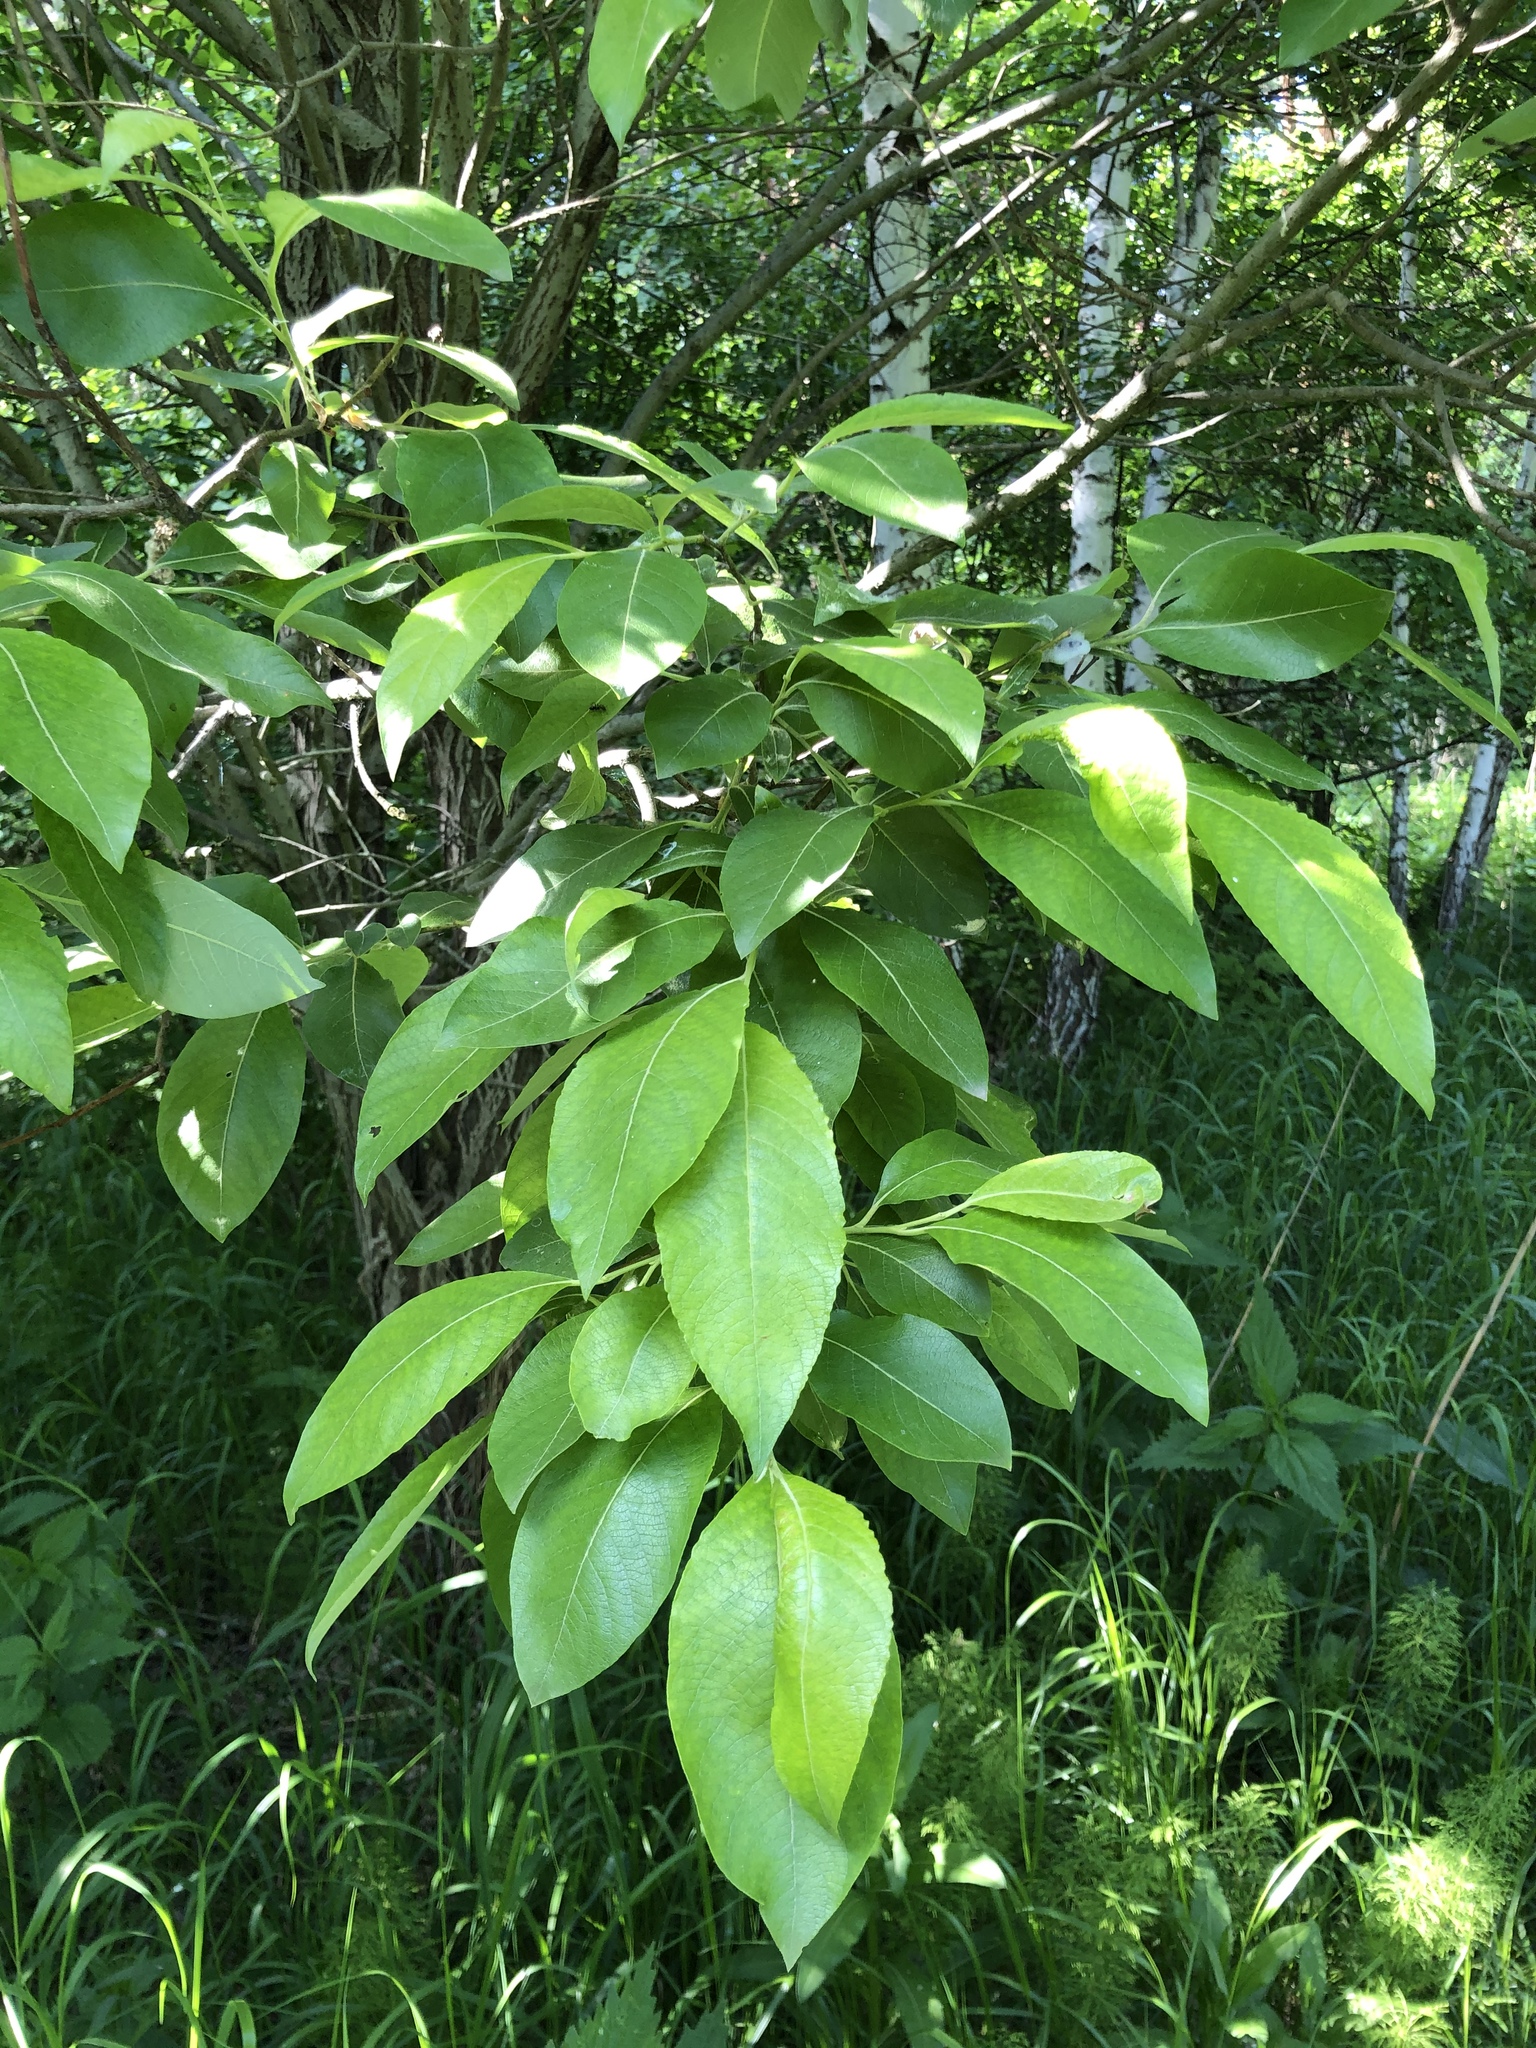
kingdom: Plantae
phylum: Tracheophyta
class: Magnoliopsida
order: Malpighiales
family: Salicaceae
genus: Salix
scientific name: Salix caprea
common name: Goat willow
